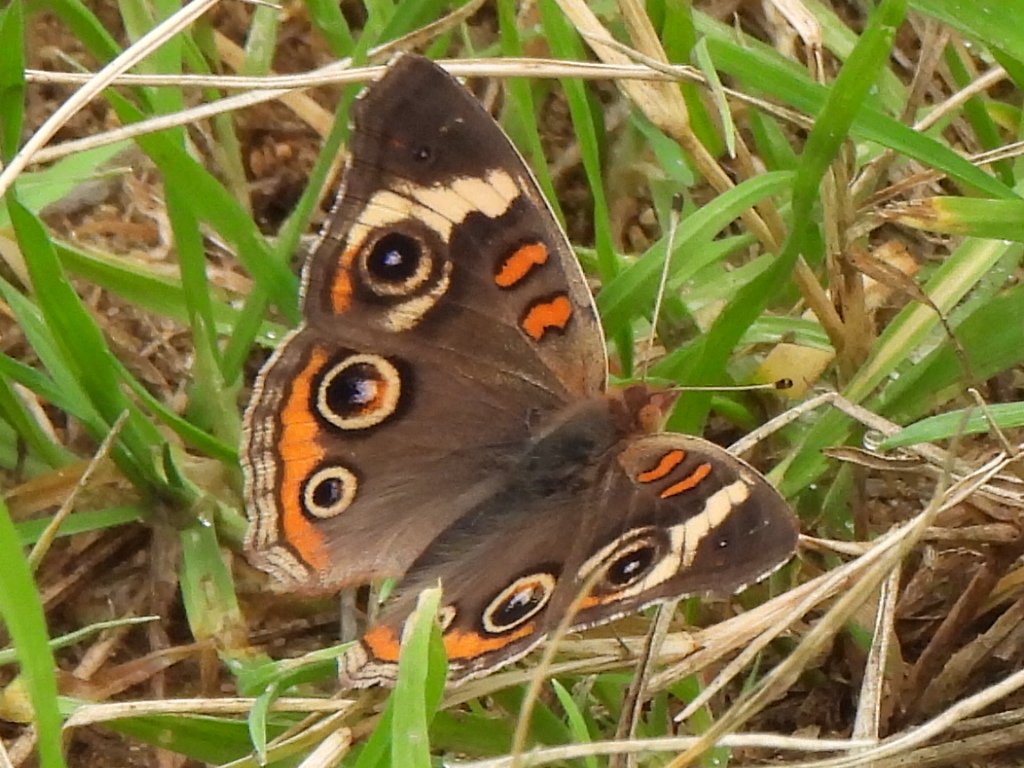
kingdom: Animalia
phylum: Arthropoda
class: Insecta
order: Lepidoptera
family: Nymphalidae
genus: Junonia
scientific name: Junonia coenia
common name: Common buckeye
